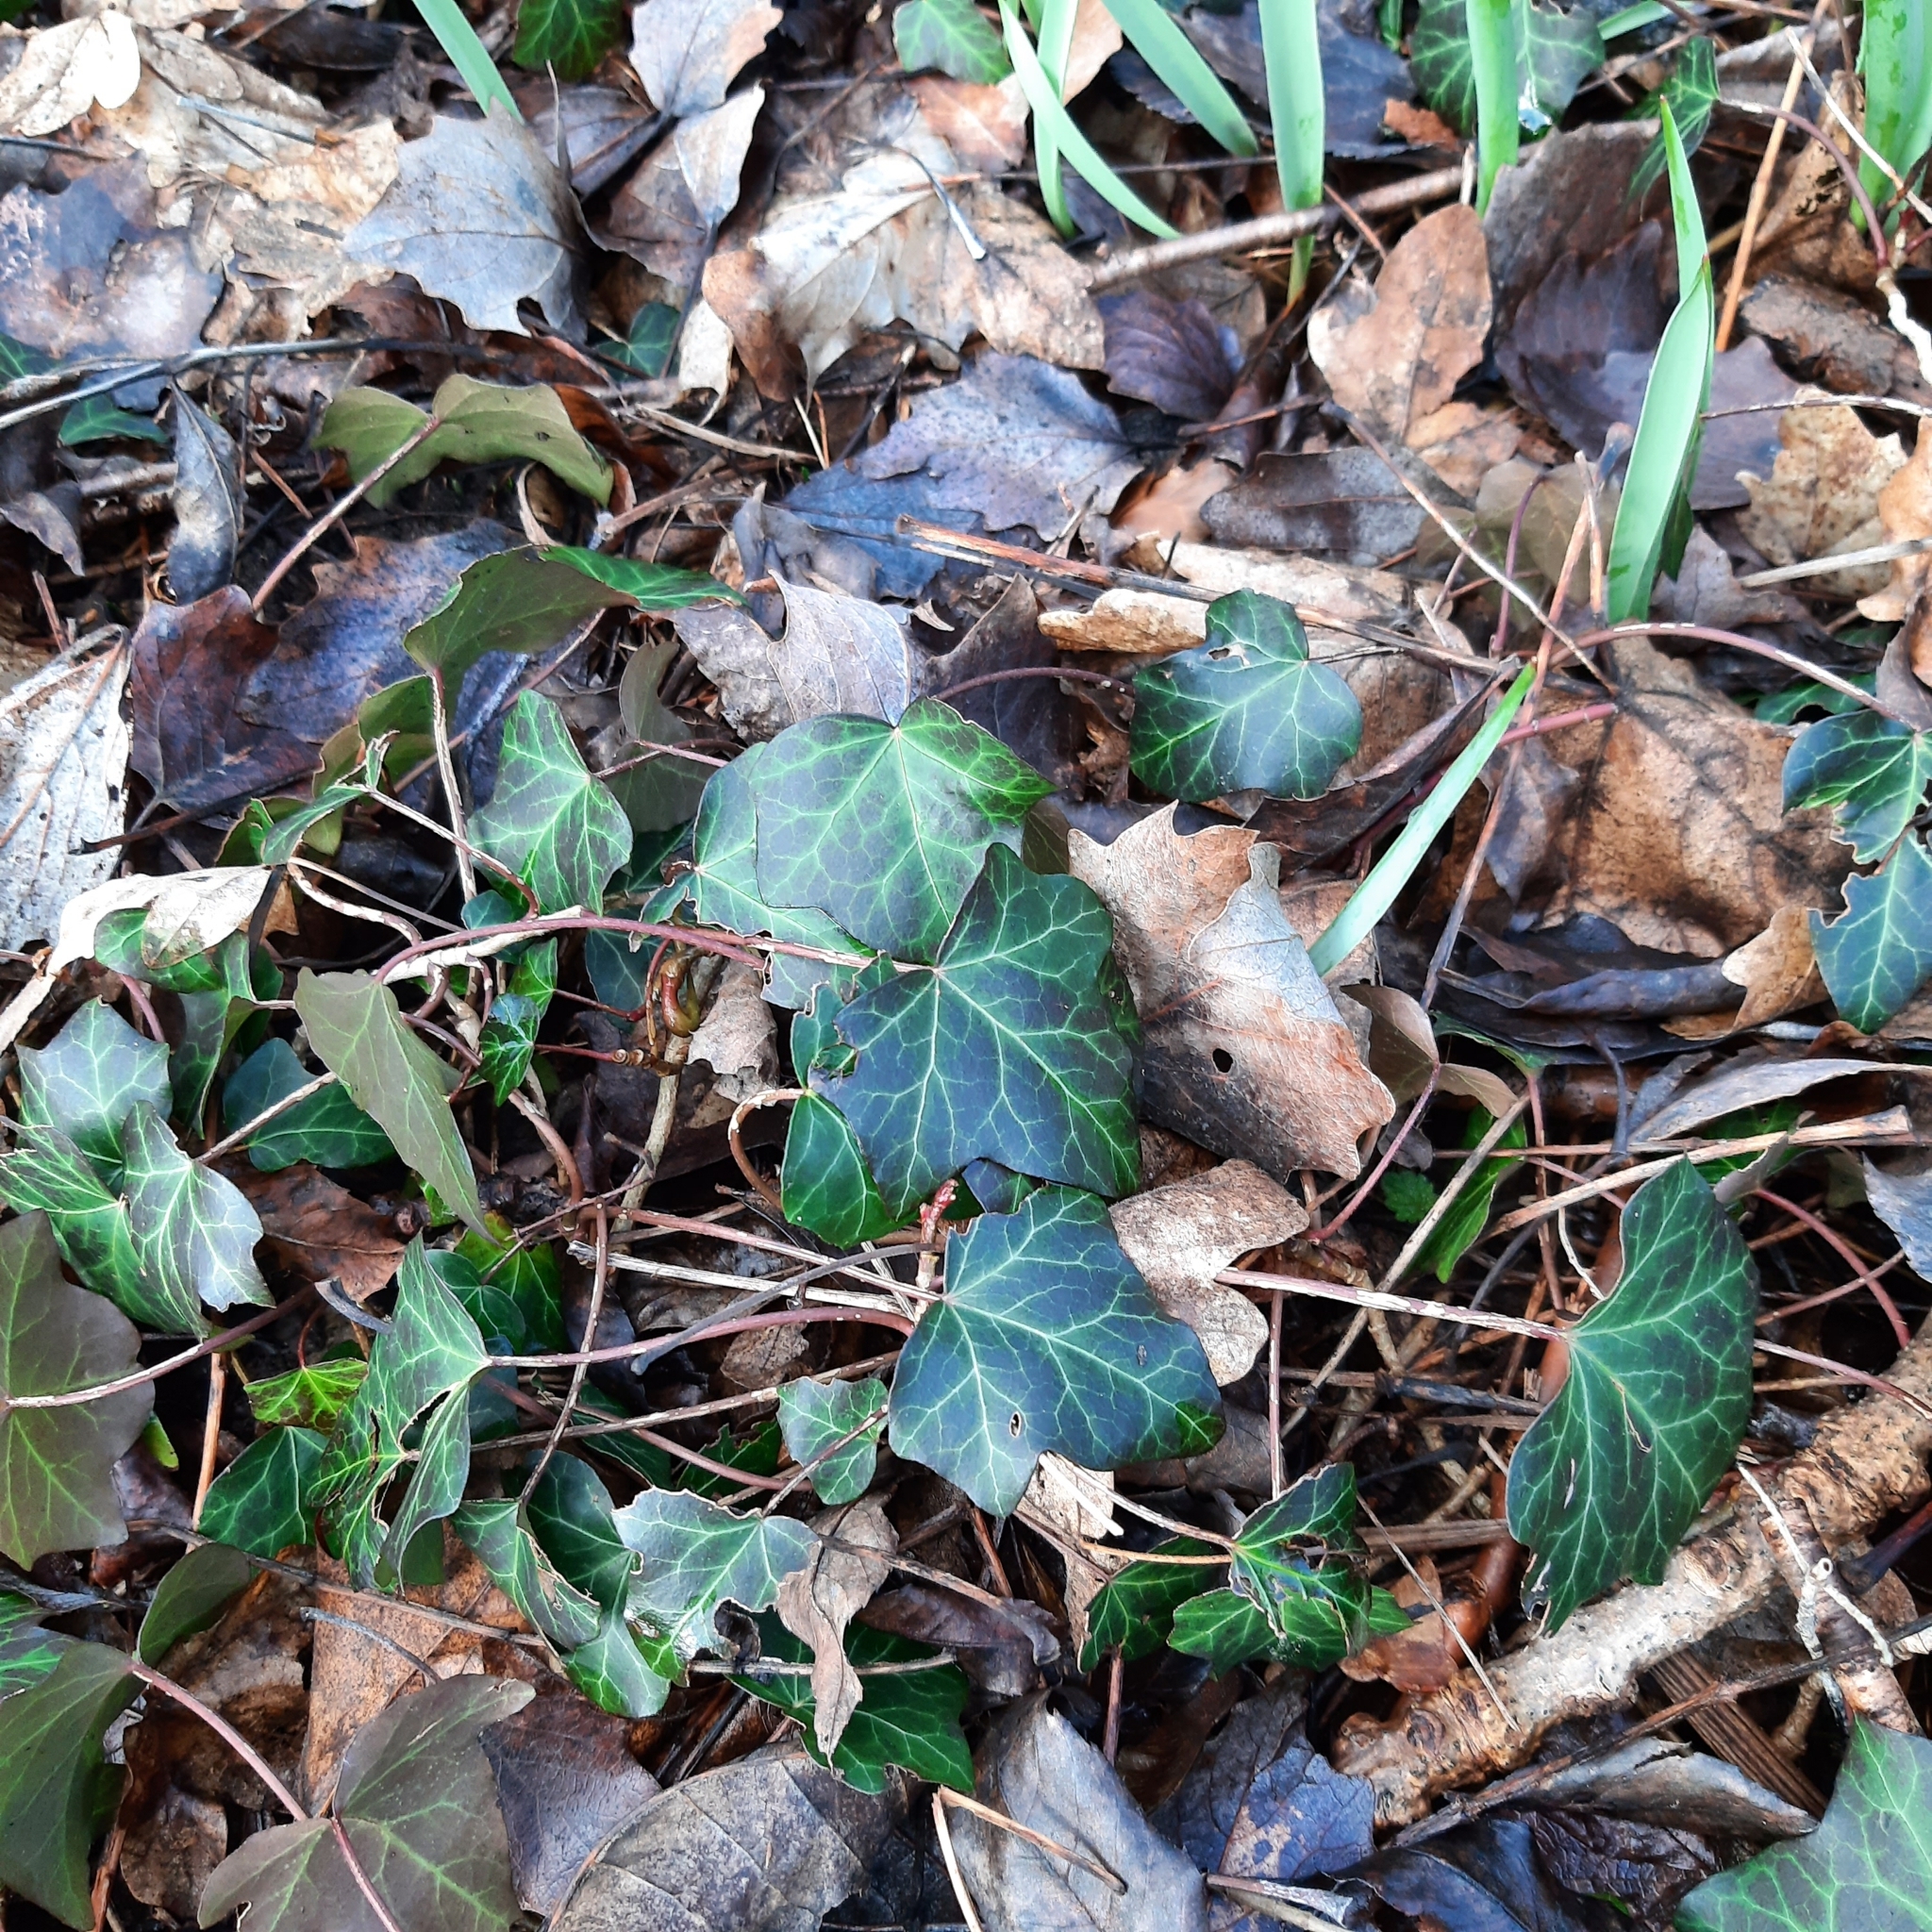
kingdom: Plantae
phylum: Tracheophyta
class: Magnoliopsida
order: Apiales
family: Araliaceae
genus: Hedera
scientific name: Hedera helix
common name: Ivy
